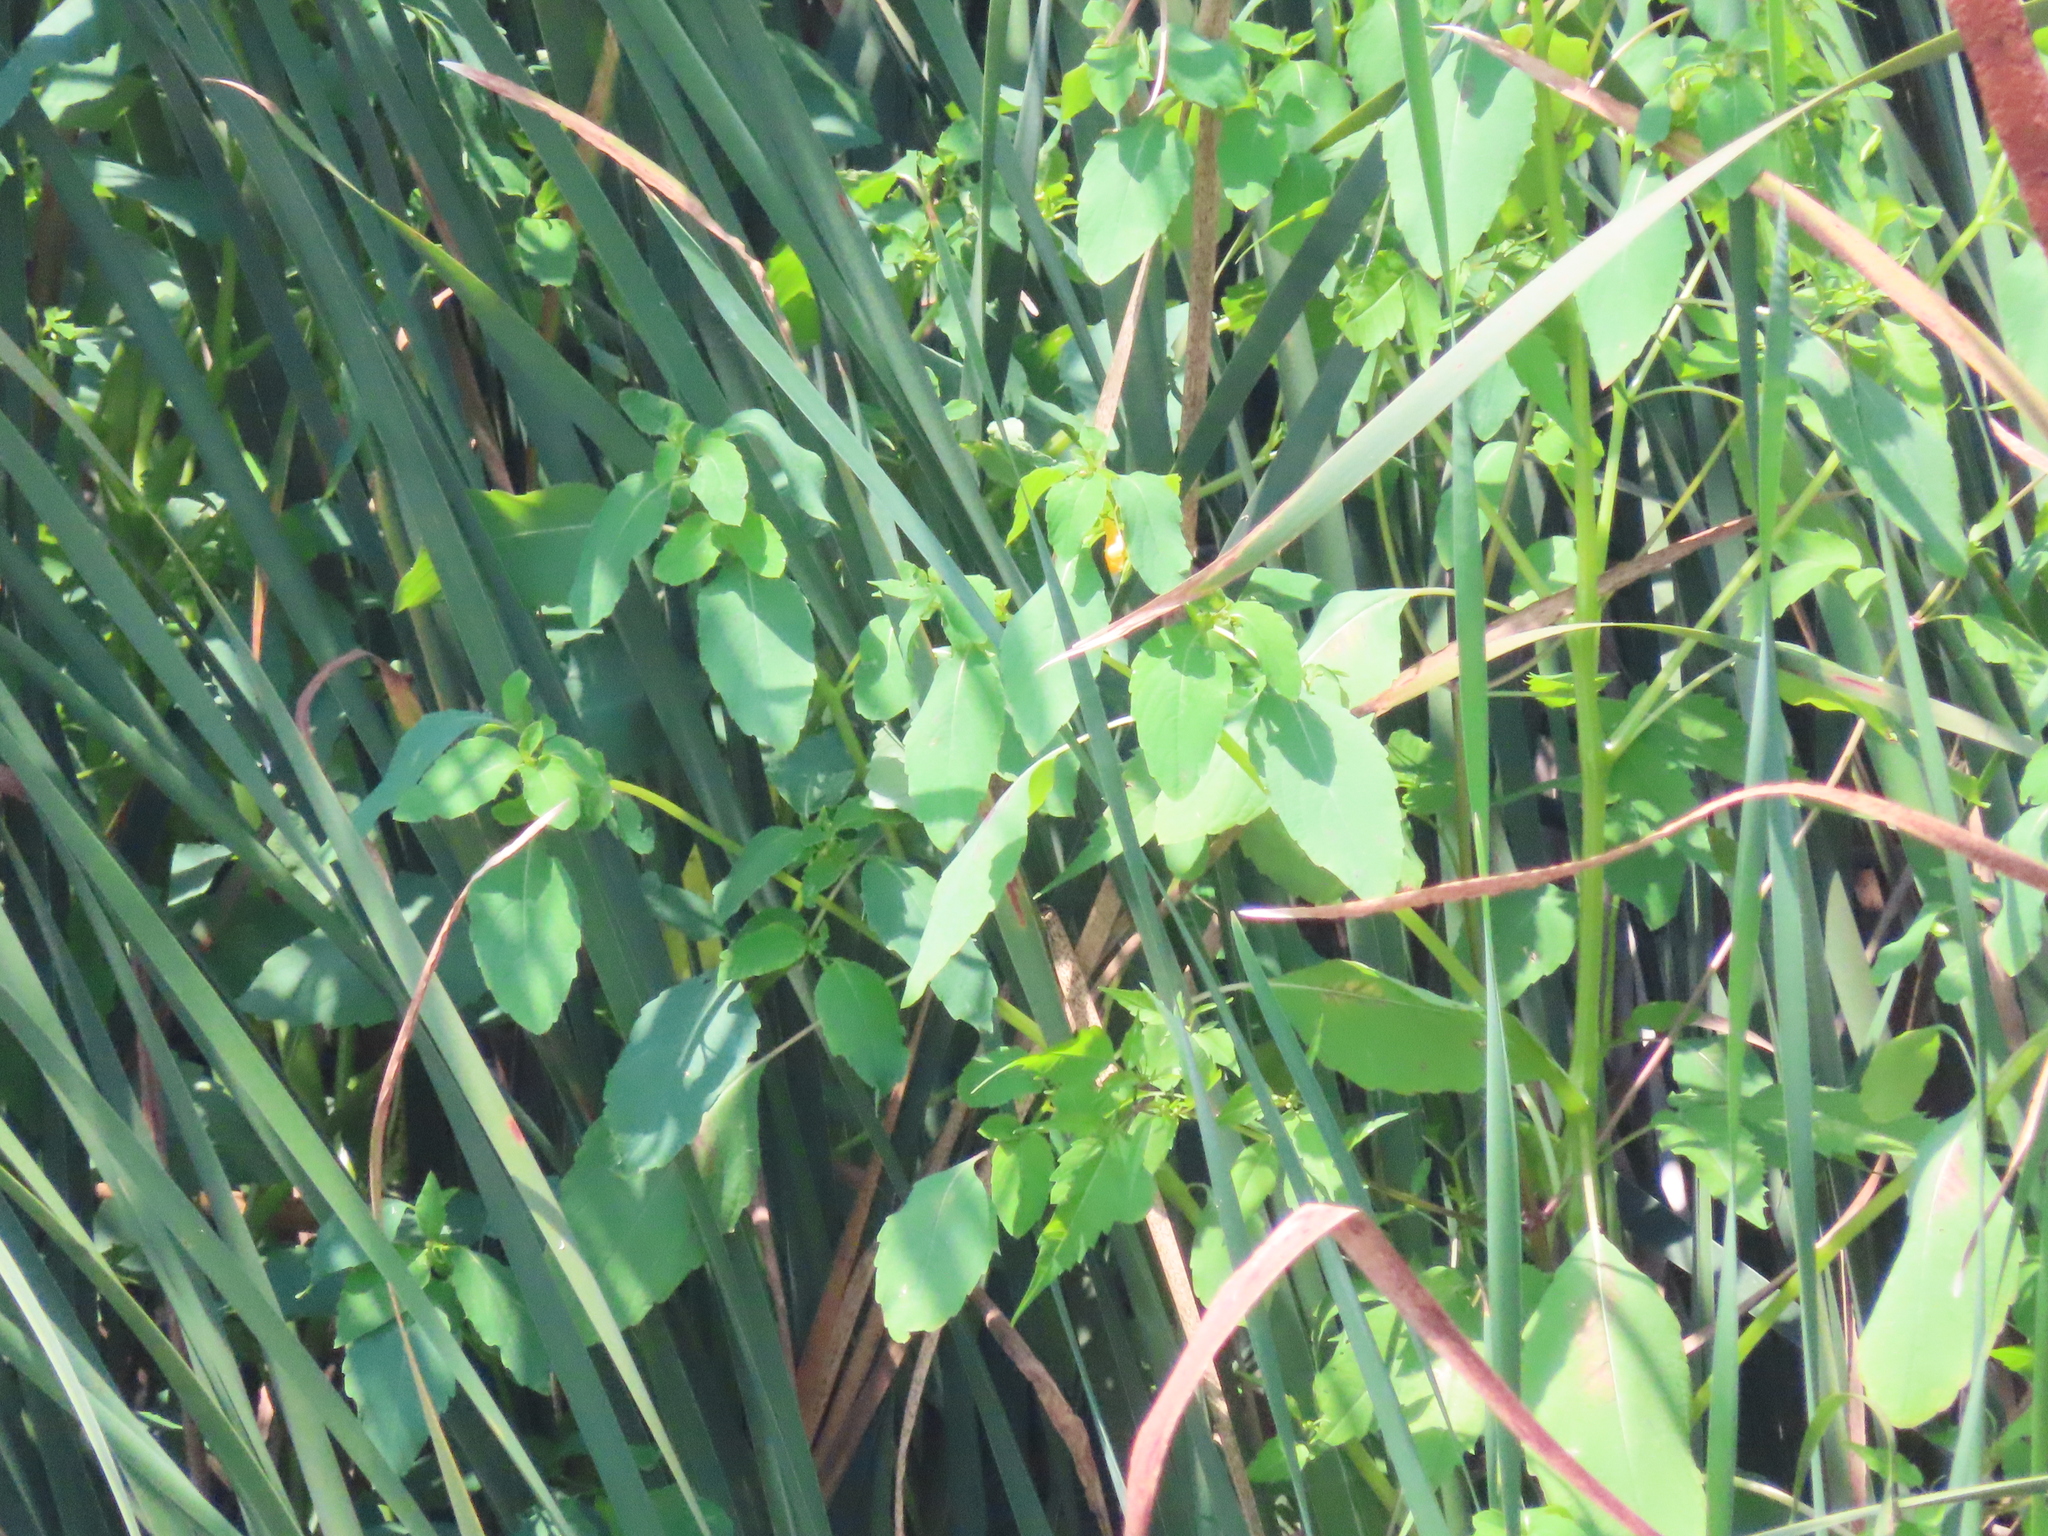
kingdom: Plantae
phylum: Tracheophyta
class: Magnoliopsida
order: Ericales
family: Balsaminaceae
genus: Impatiens
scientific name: Impatiens capensis
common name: Orange balsam
